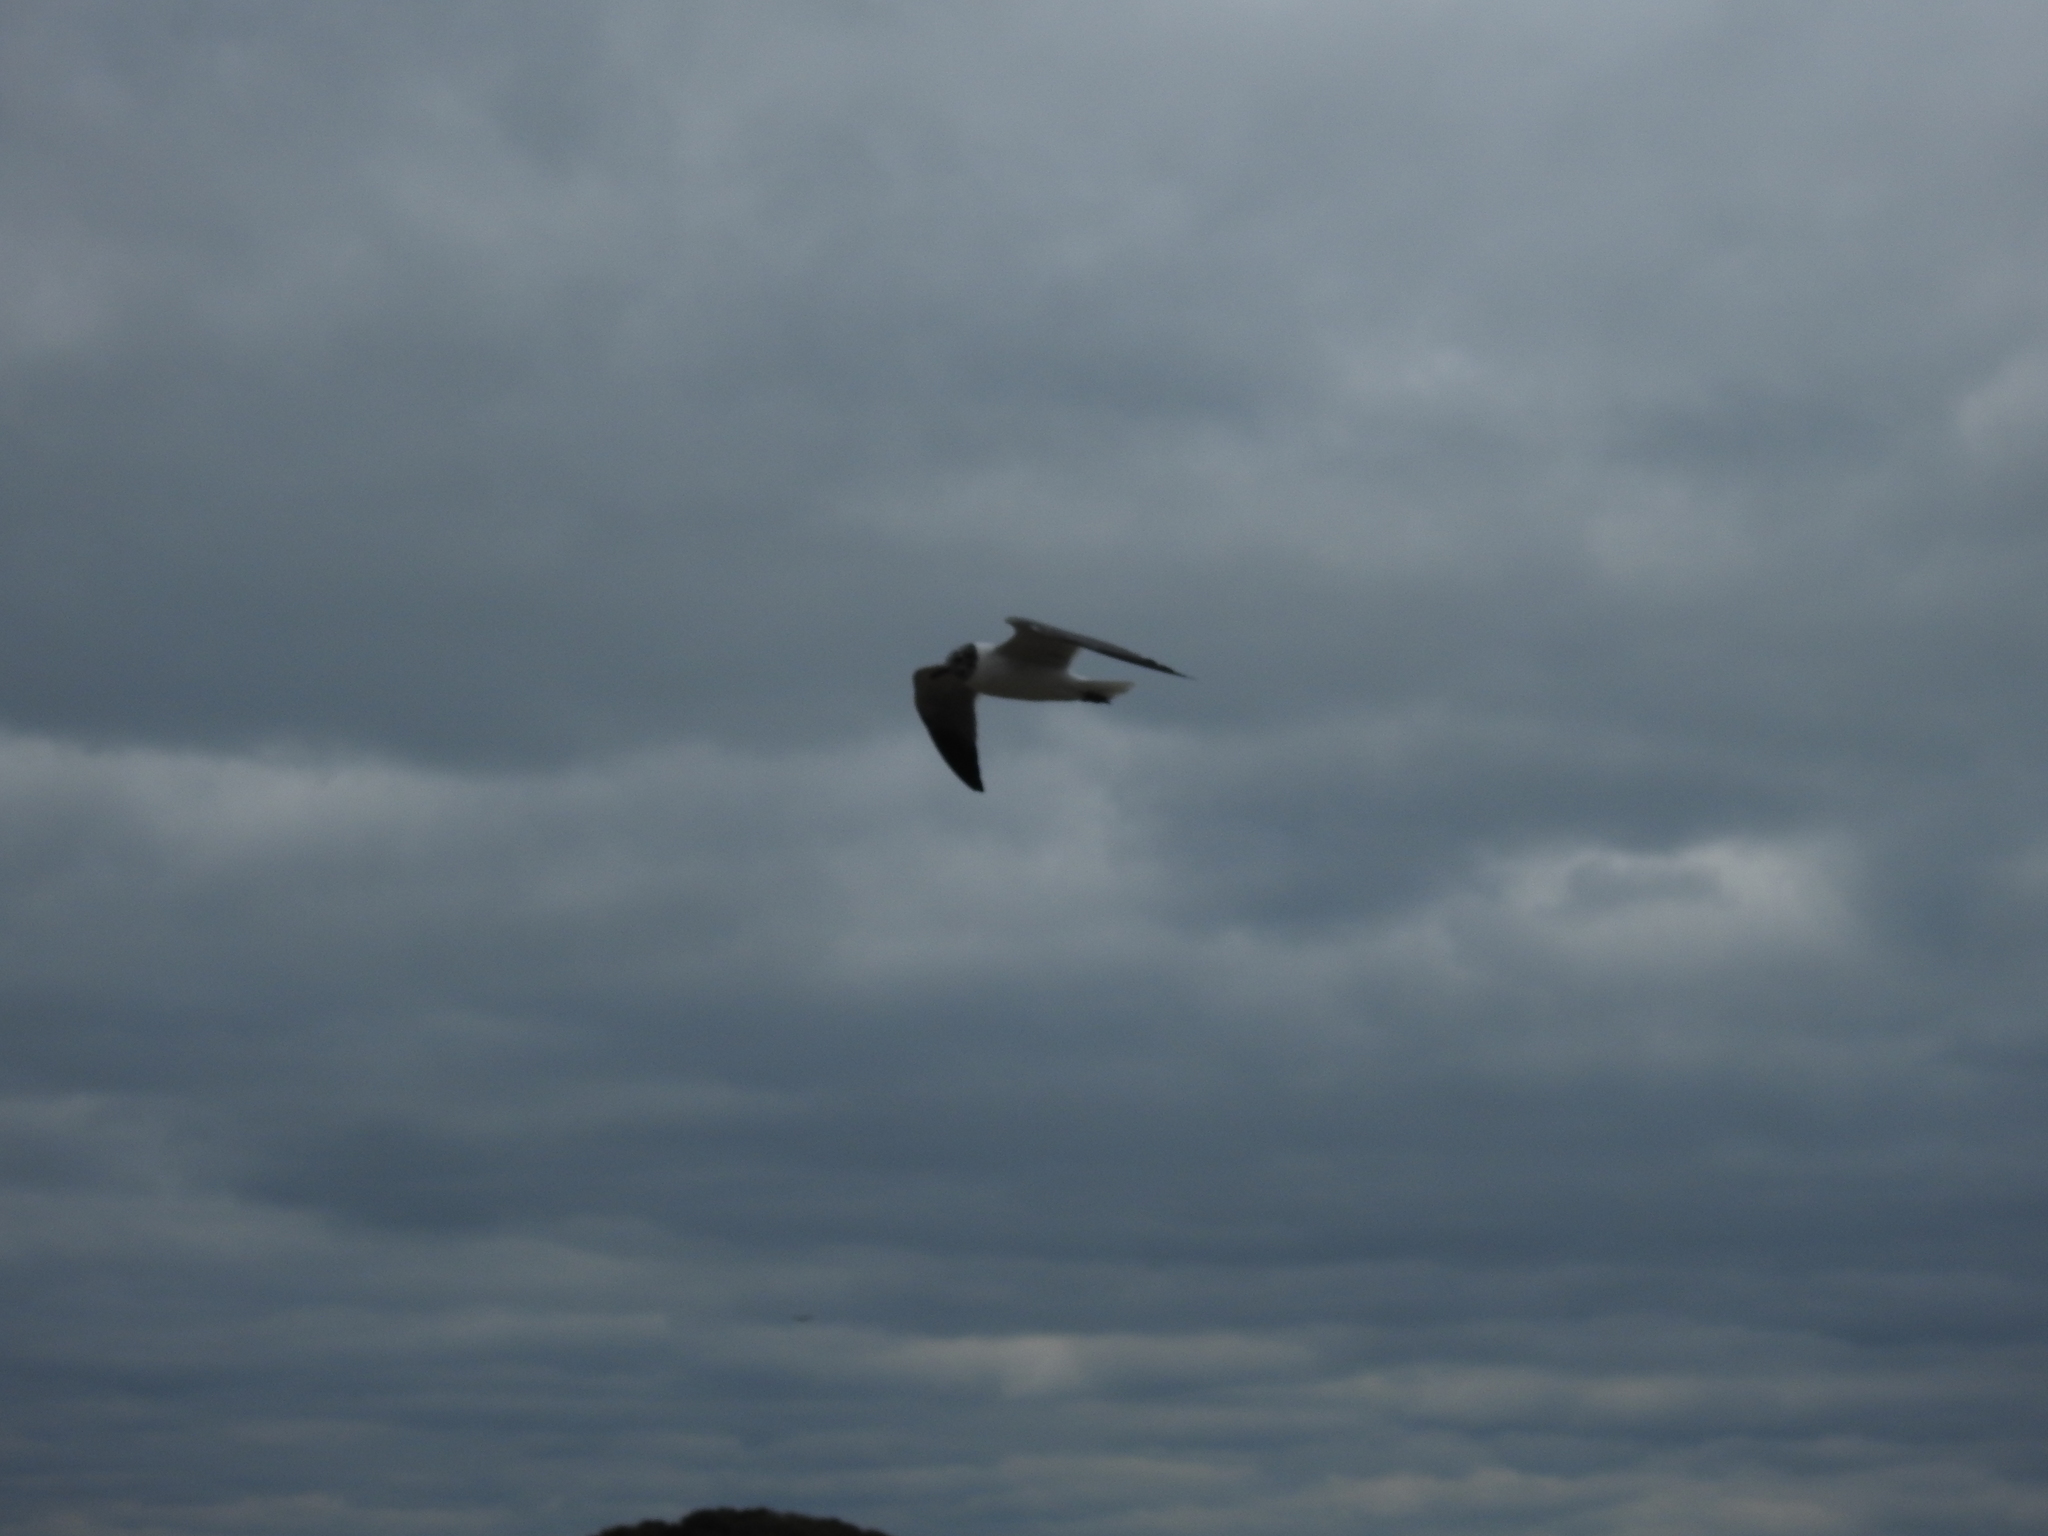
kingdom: Animalia
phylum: Chordata
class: Aves
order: Charadriiformes
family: Laridae
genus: Leucophaeus
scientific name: Leucophaeus atricilla
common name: Laughing gull
